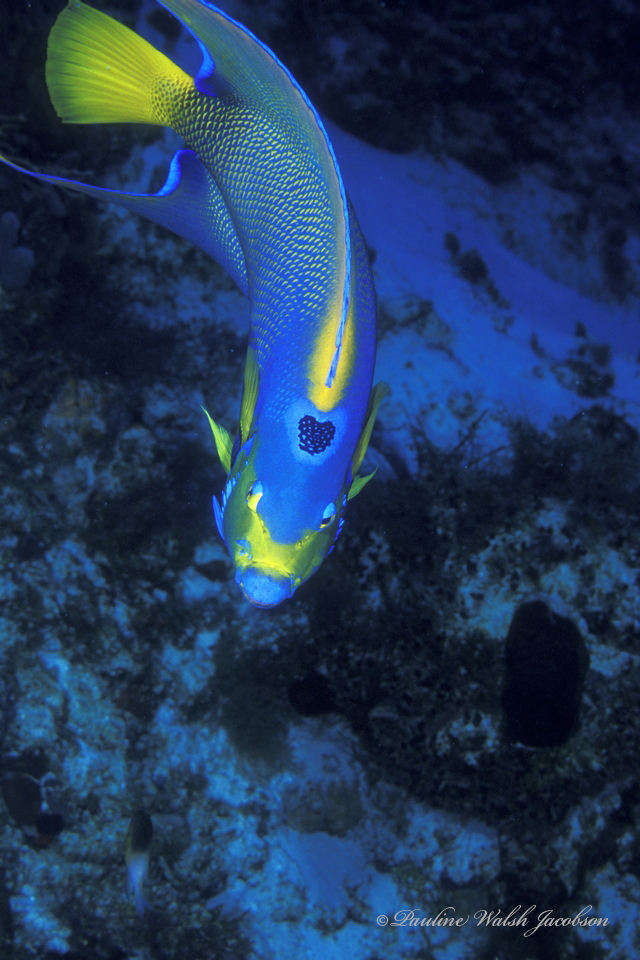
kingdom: Animalia
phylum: Chordata
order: Perciformes
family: Pomacanthidae
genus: Holacanthus
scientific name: Holacanthus ciliaris
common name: Queen angelfish
